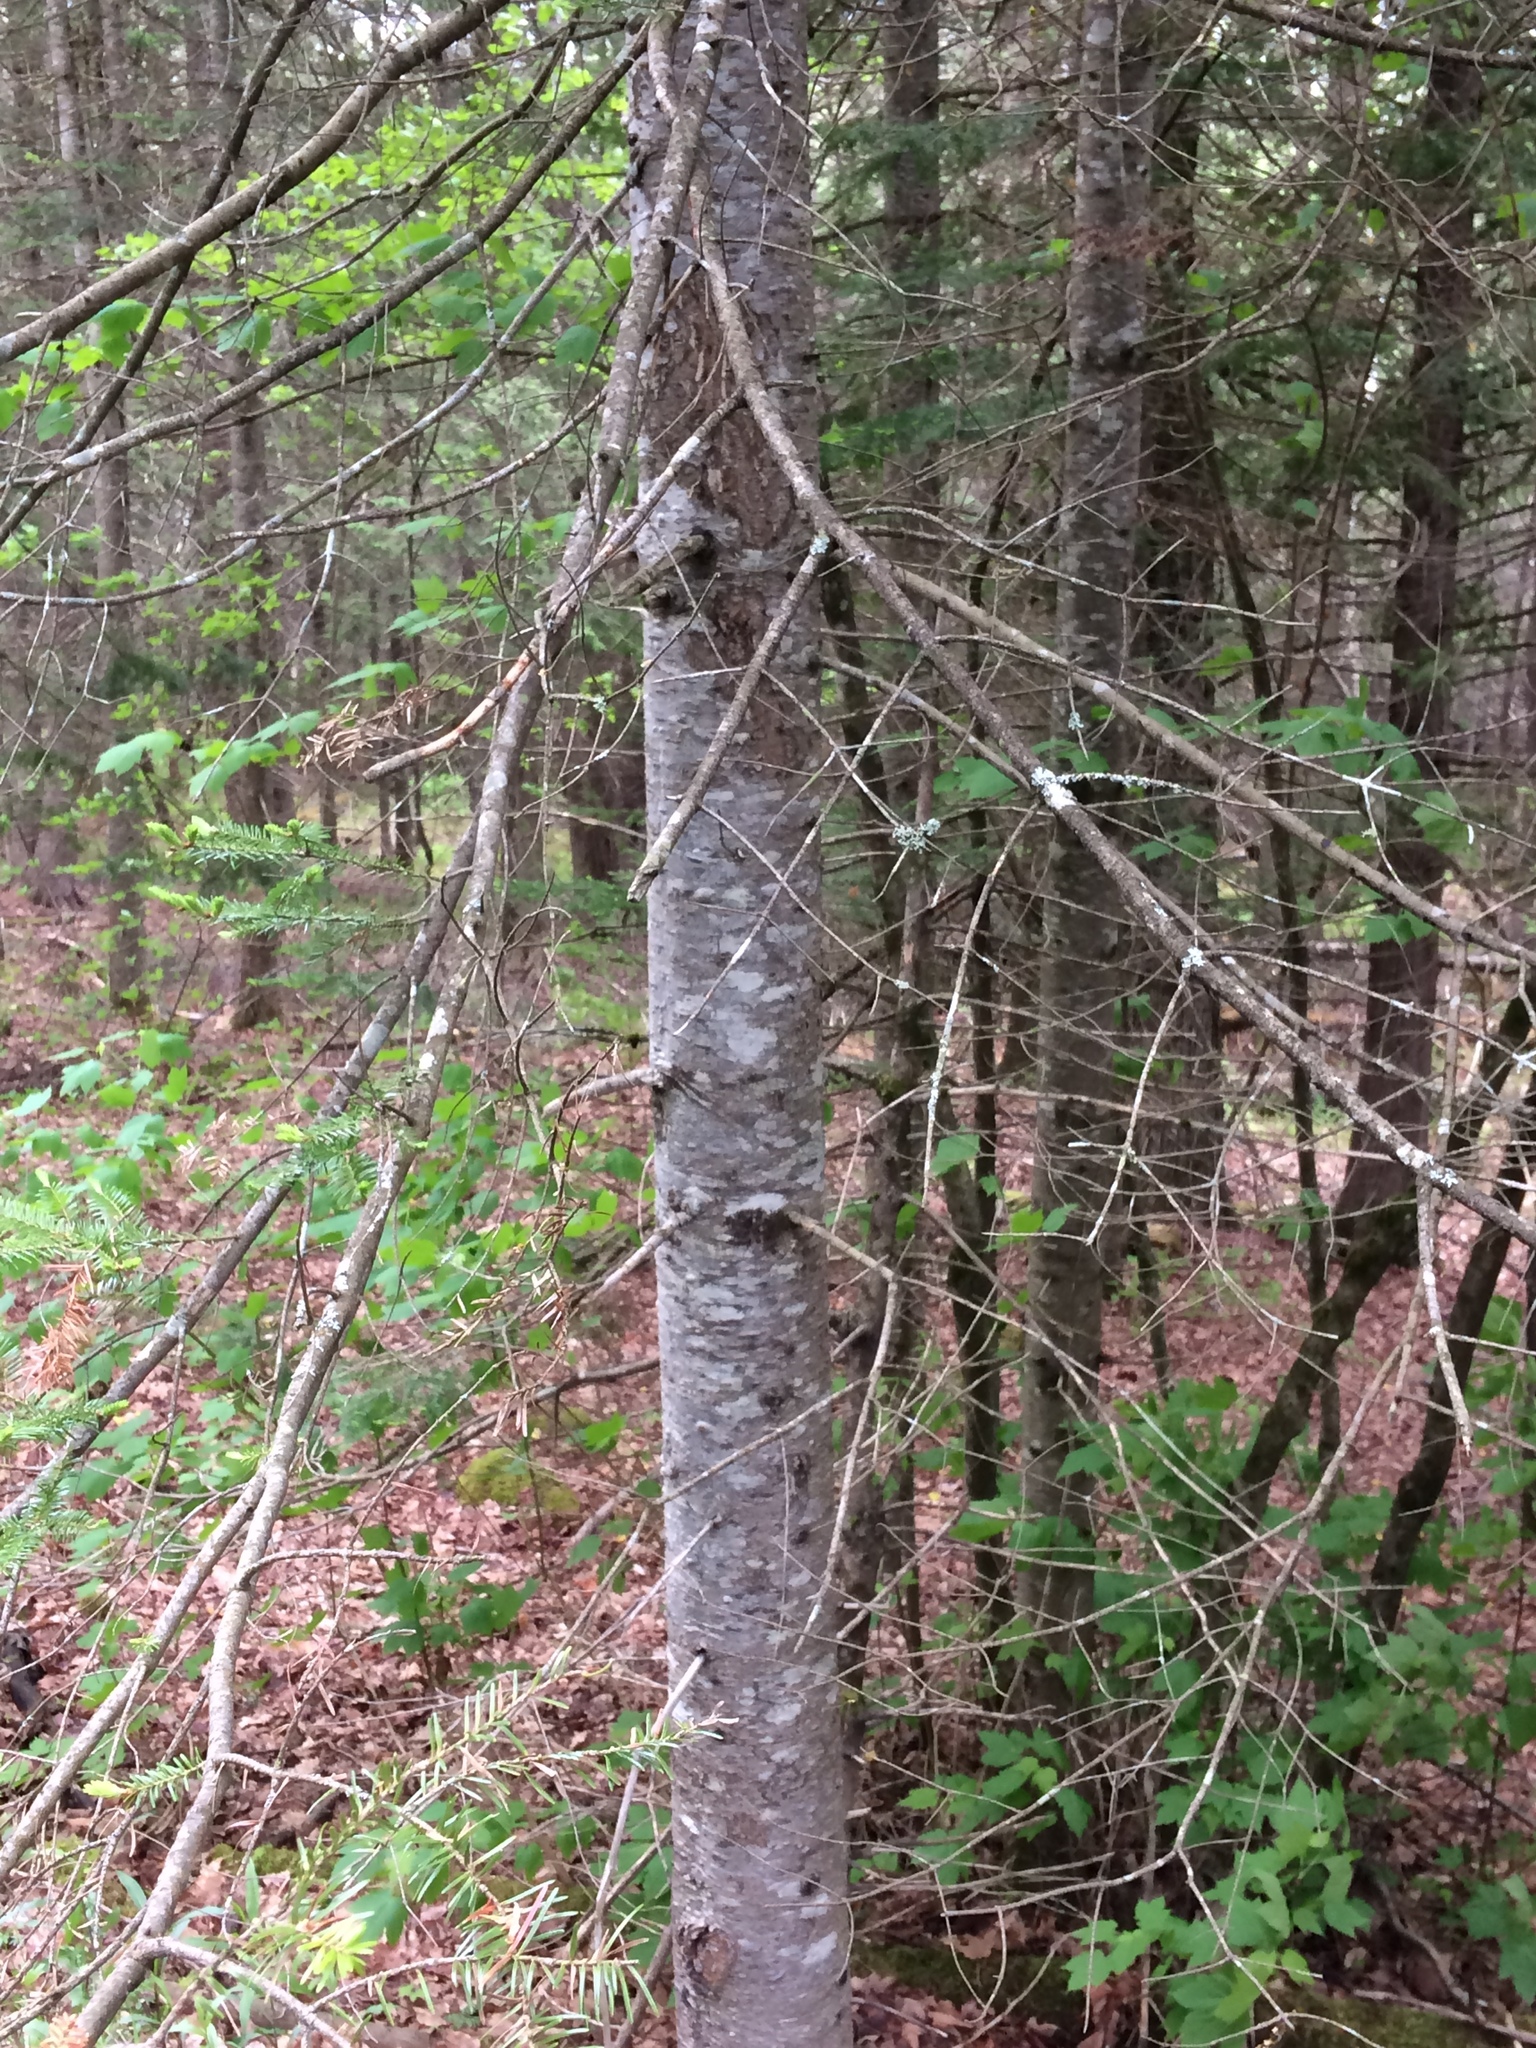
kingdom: Plantae
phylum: Tracheophyta
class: Pinopsida
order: Pinales
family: Pinaceae
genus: Abies
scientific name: Abies balsamea
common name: Balsam fir
